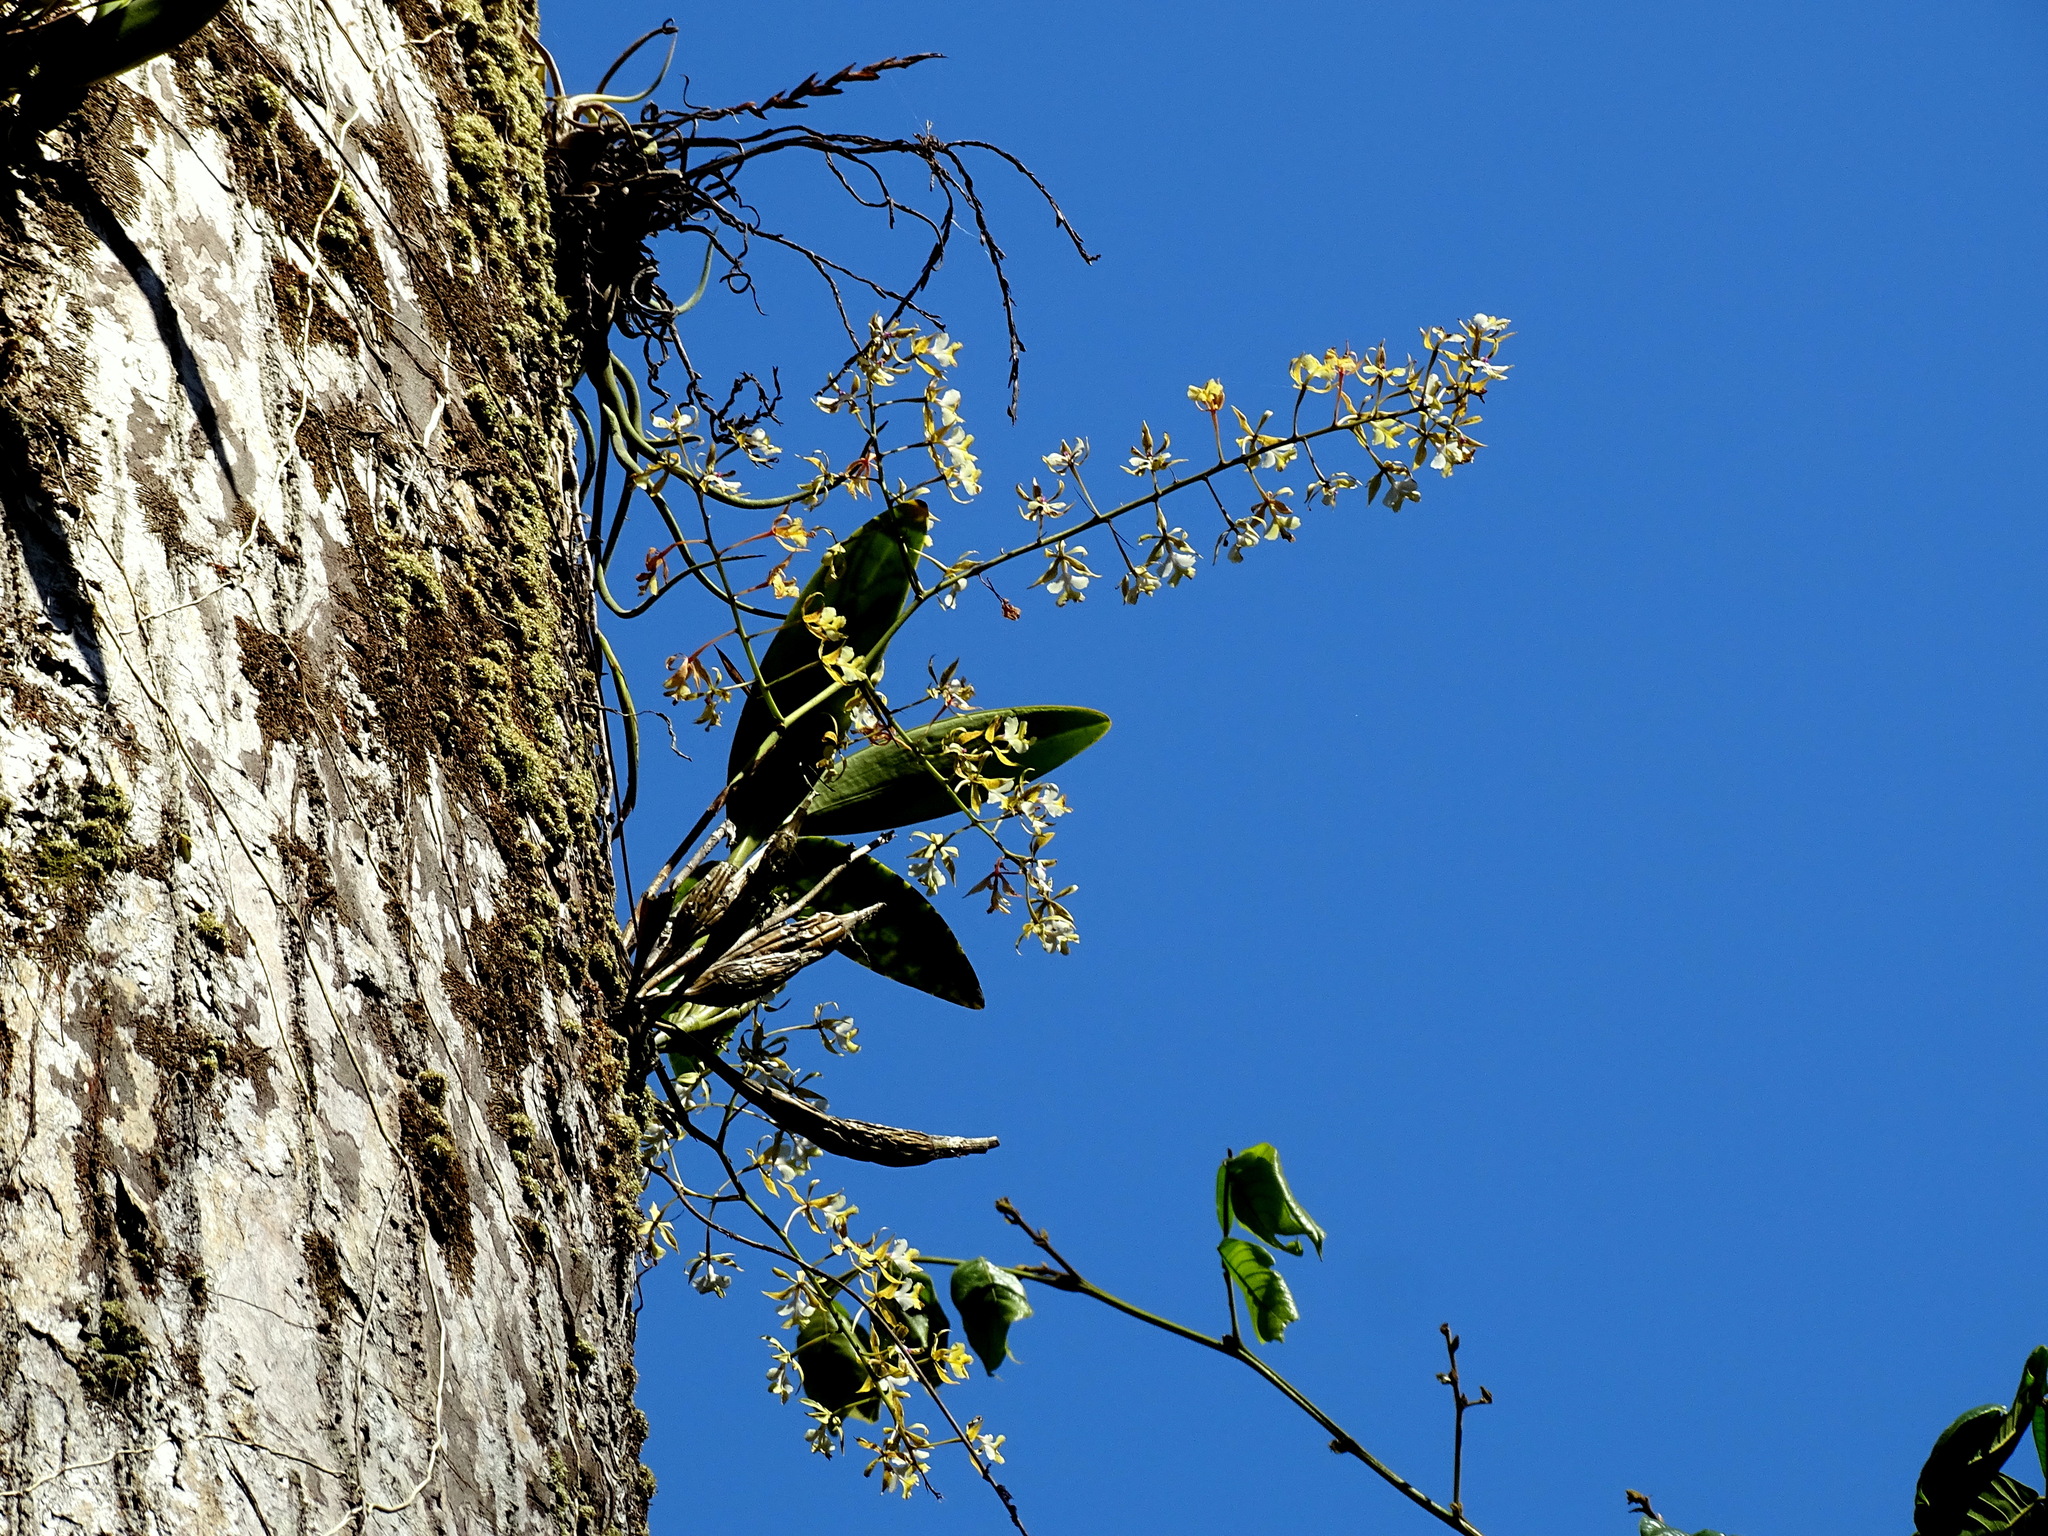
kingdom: Plantae
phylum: Tracheophyta
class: Liliopsida
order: Asparagales
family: Orchidaceae
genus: Epidendrum
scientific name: Epidendrum stamfordianum
